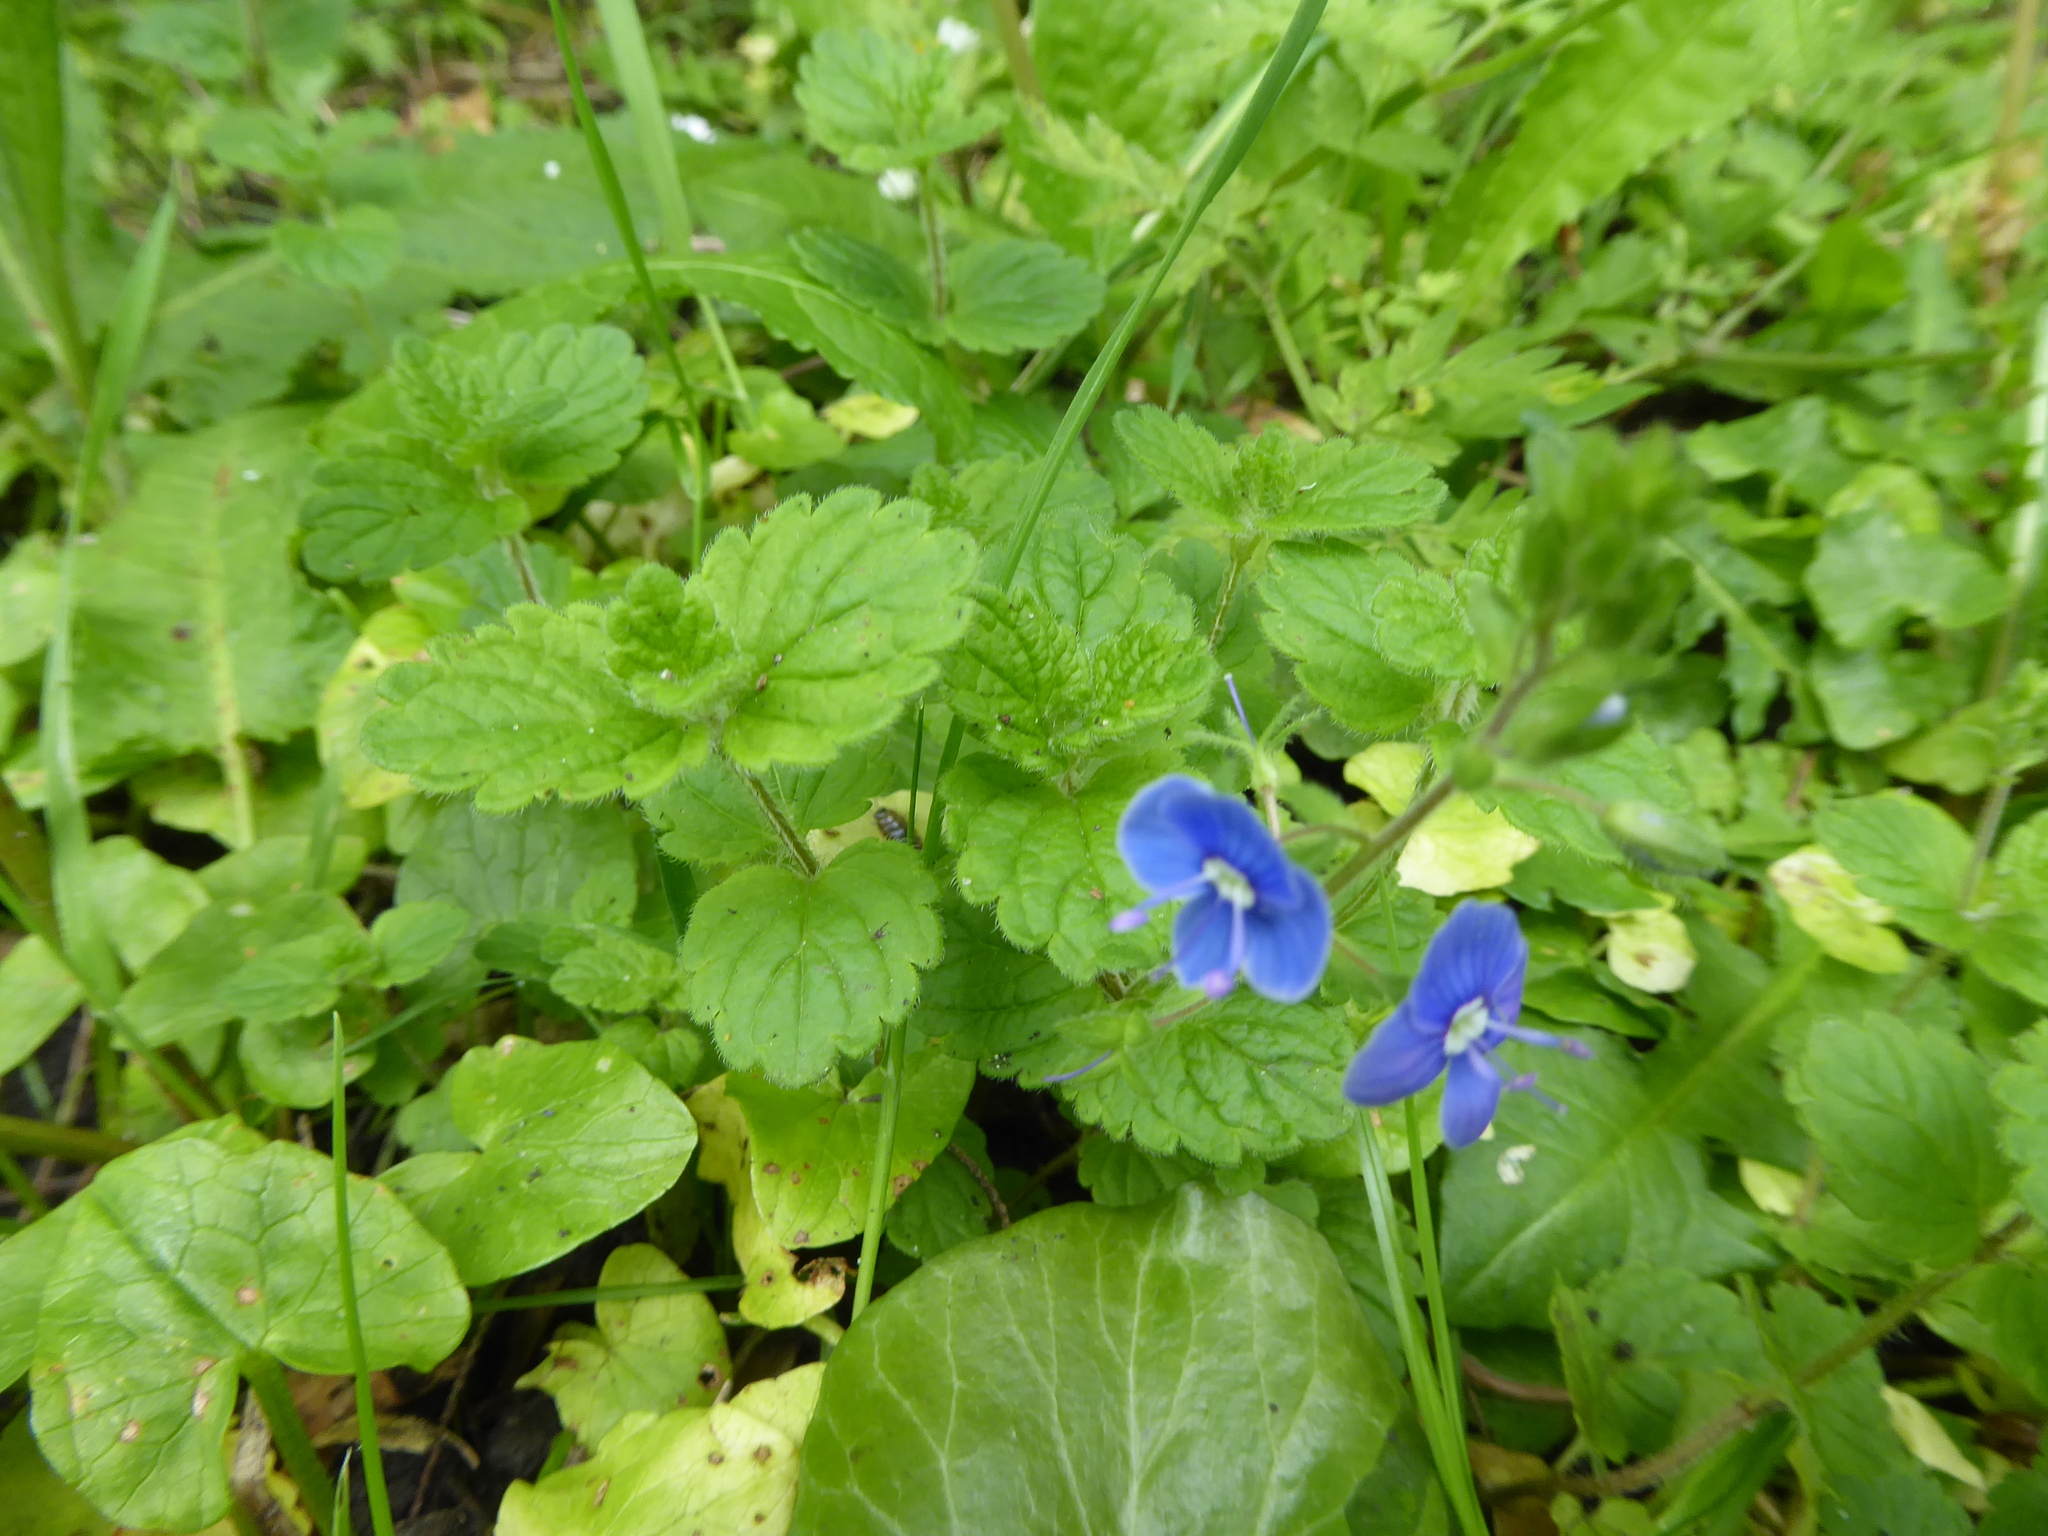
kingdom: Plantae
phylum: Tracheophyta
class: Magnoliopsida
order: Lamiales
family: Plantaginaceae
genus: Veronica
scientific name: Veronica chamaedrys
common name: Germander speedwell
